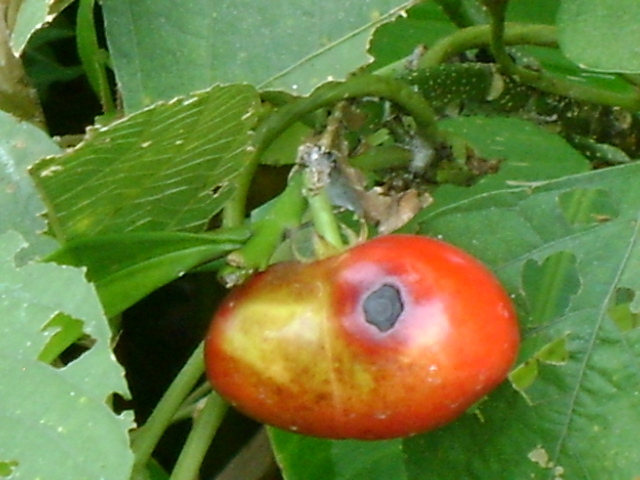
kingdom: Plantae
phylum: Tracheophyta
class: Magnoliopsida
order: Gentianales
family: Apocynaceae
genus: Thevetia
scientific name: Thevetia ahouai
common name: Broadleaf thevetia
